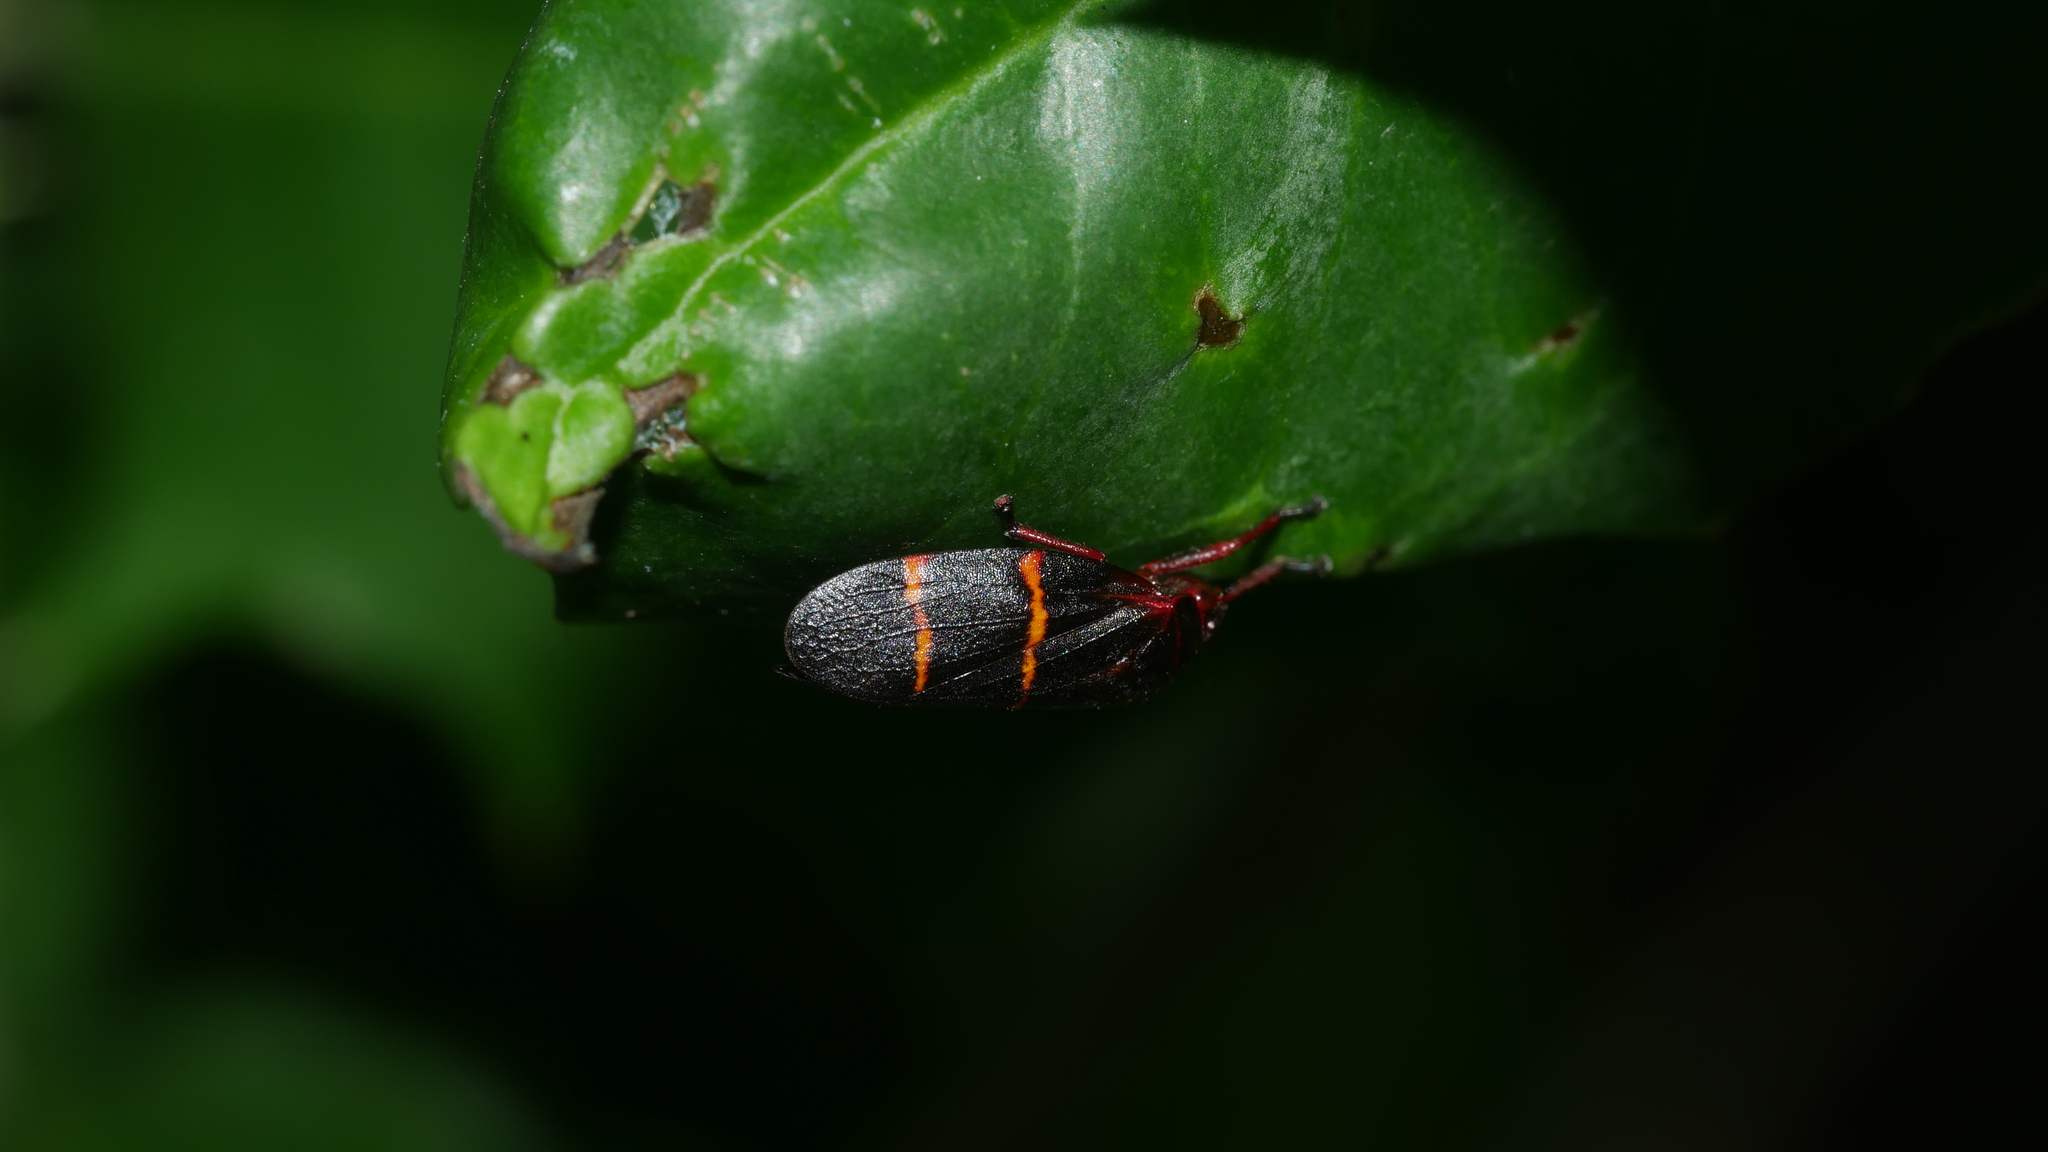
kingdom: Animalia
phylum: Arthropoda
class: Insecta
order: Hemiptera
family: Cercopidae
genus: Prosapia
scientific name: Prosapia bicincta
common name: Twolined spittlebug
